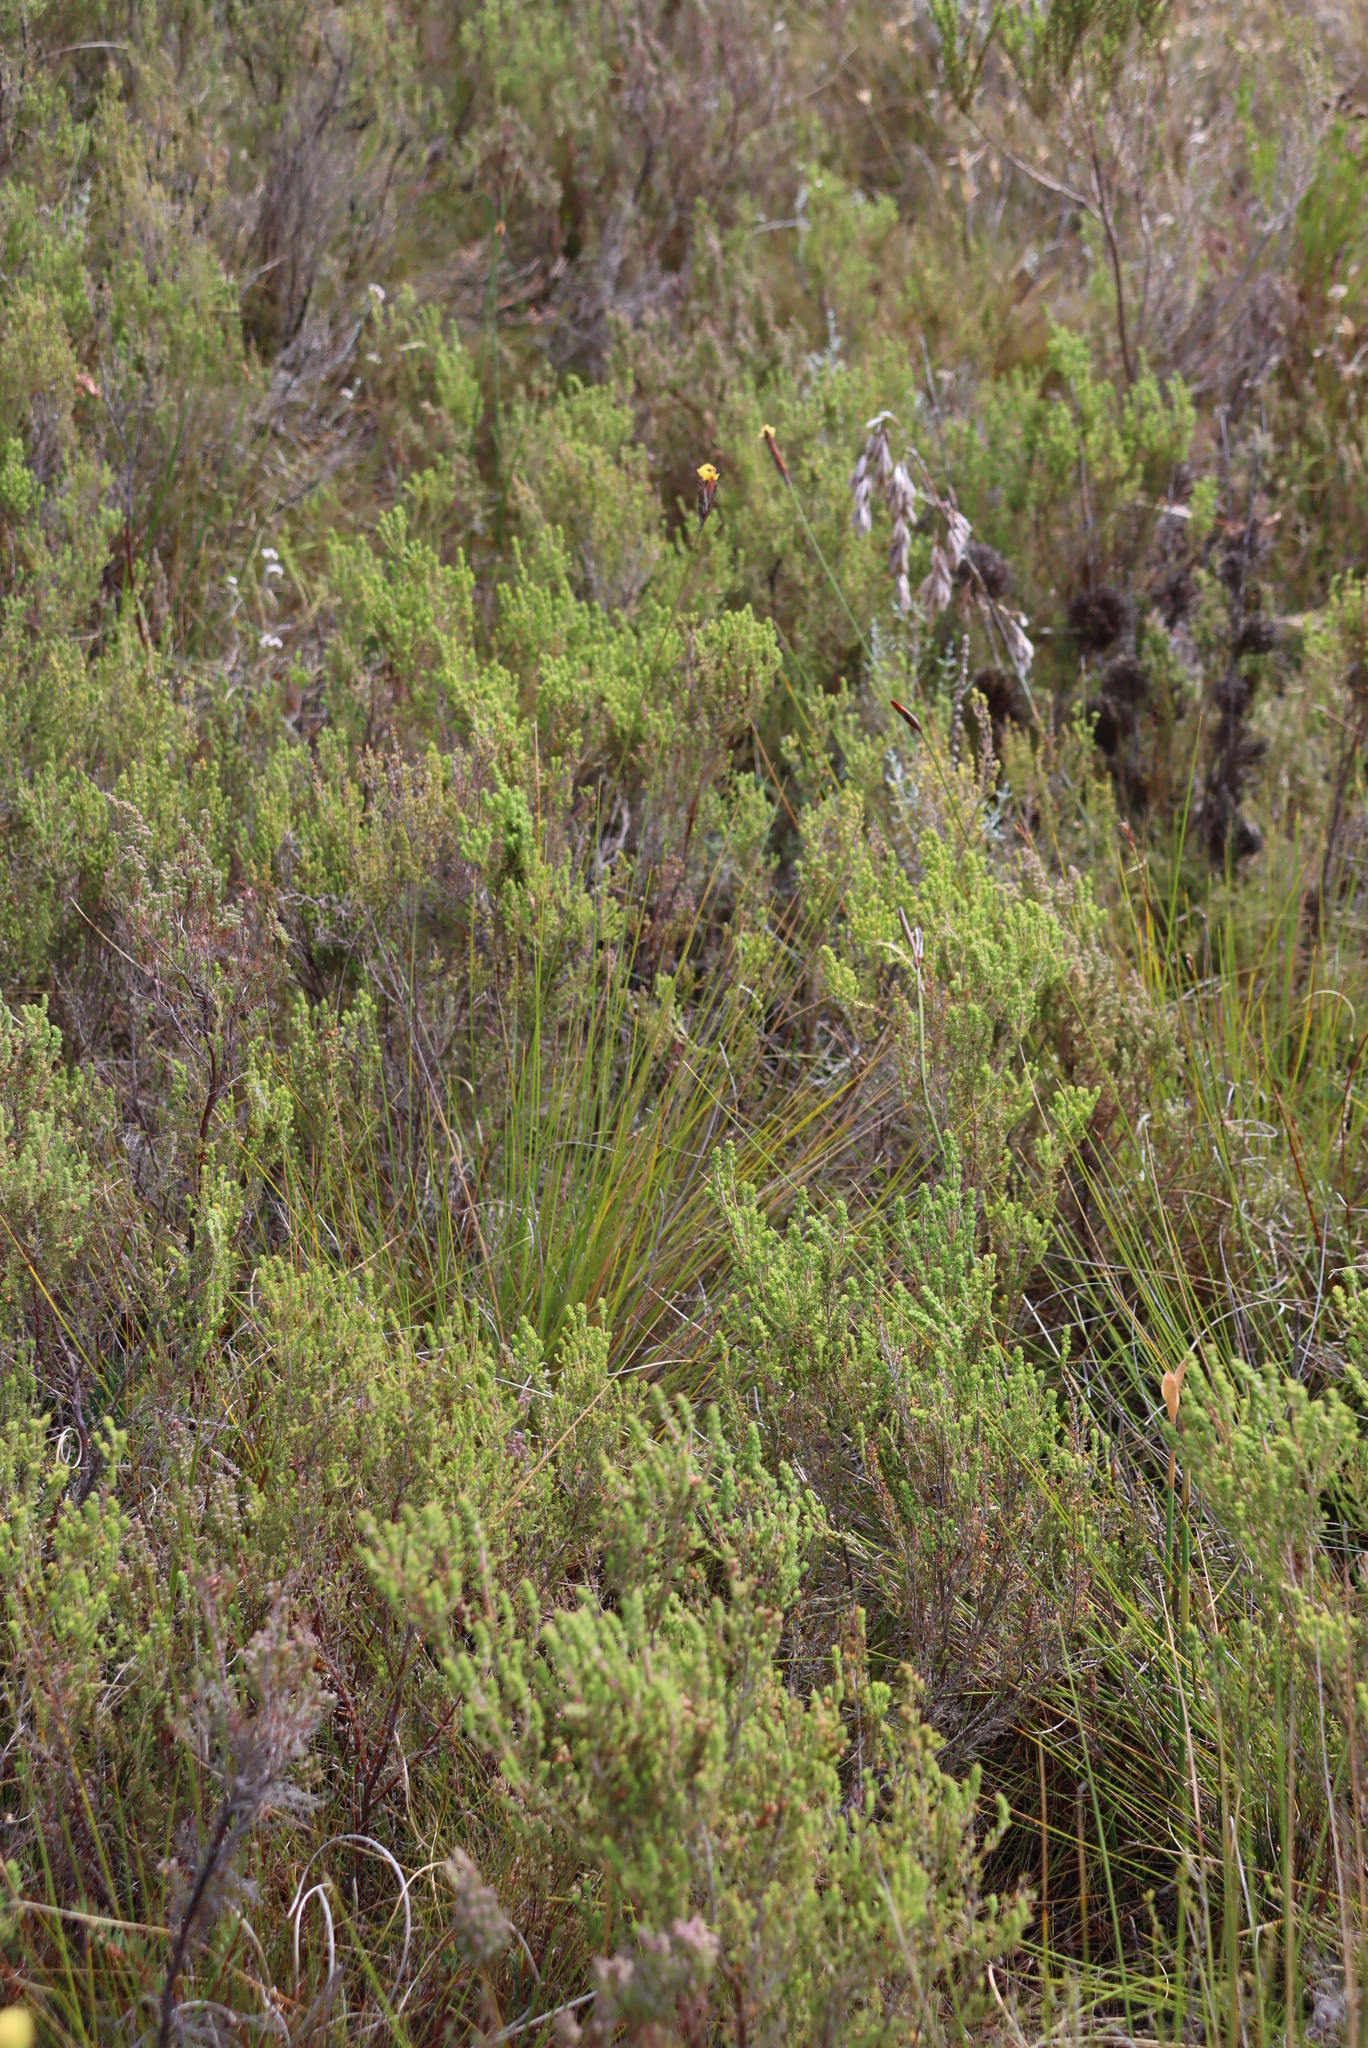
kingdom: Plantae
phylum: Tracheophyta
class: Liliopsida
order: Asparagales
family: Iridaceae
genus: Bobartia
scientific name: Bobartia macrospatha
